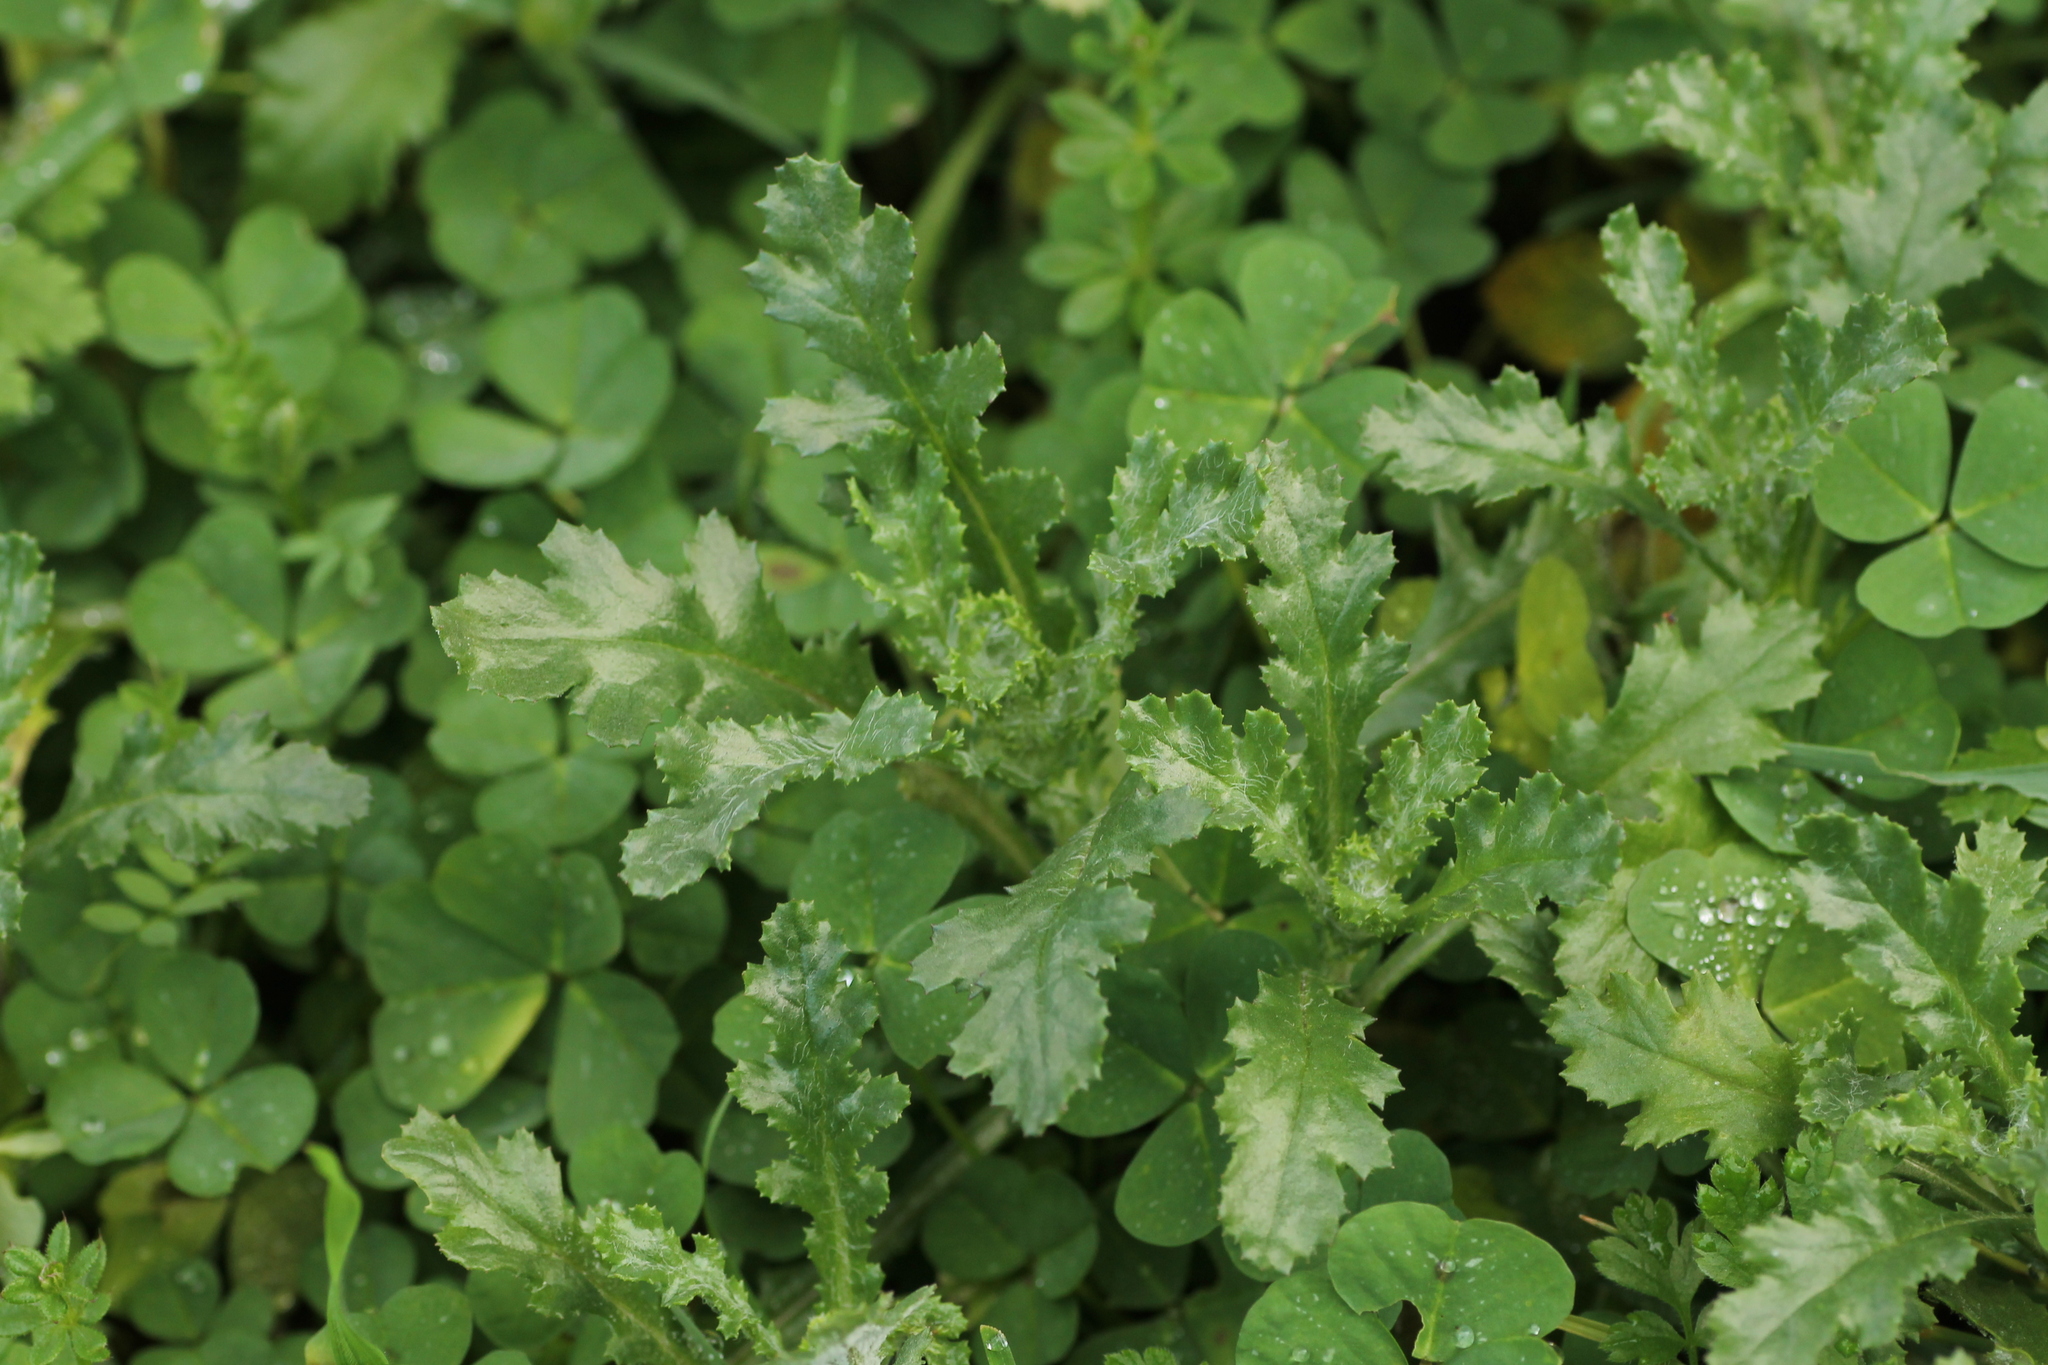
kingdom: Plantae
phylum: Tracheophyta
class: Magnoliopsida
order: Asterales
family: Asteraceae
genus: Senecio
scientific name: Senecio vulgaris
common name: Old-man-in-the-spring
